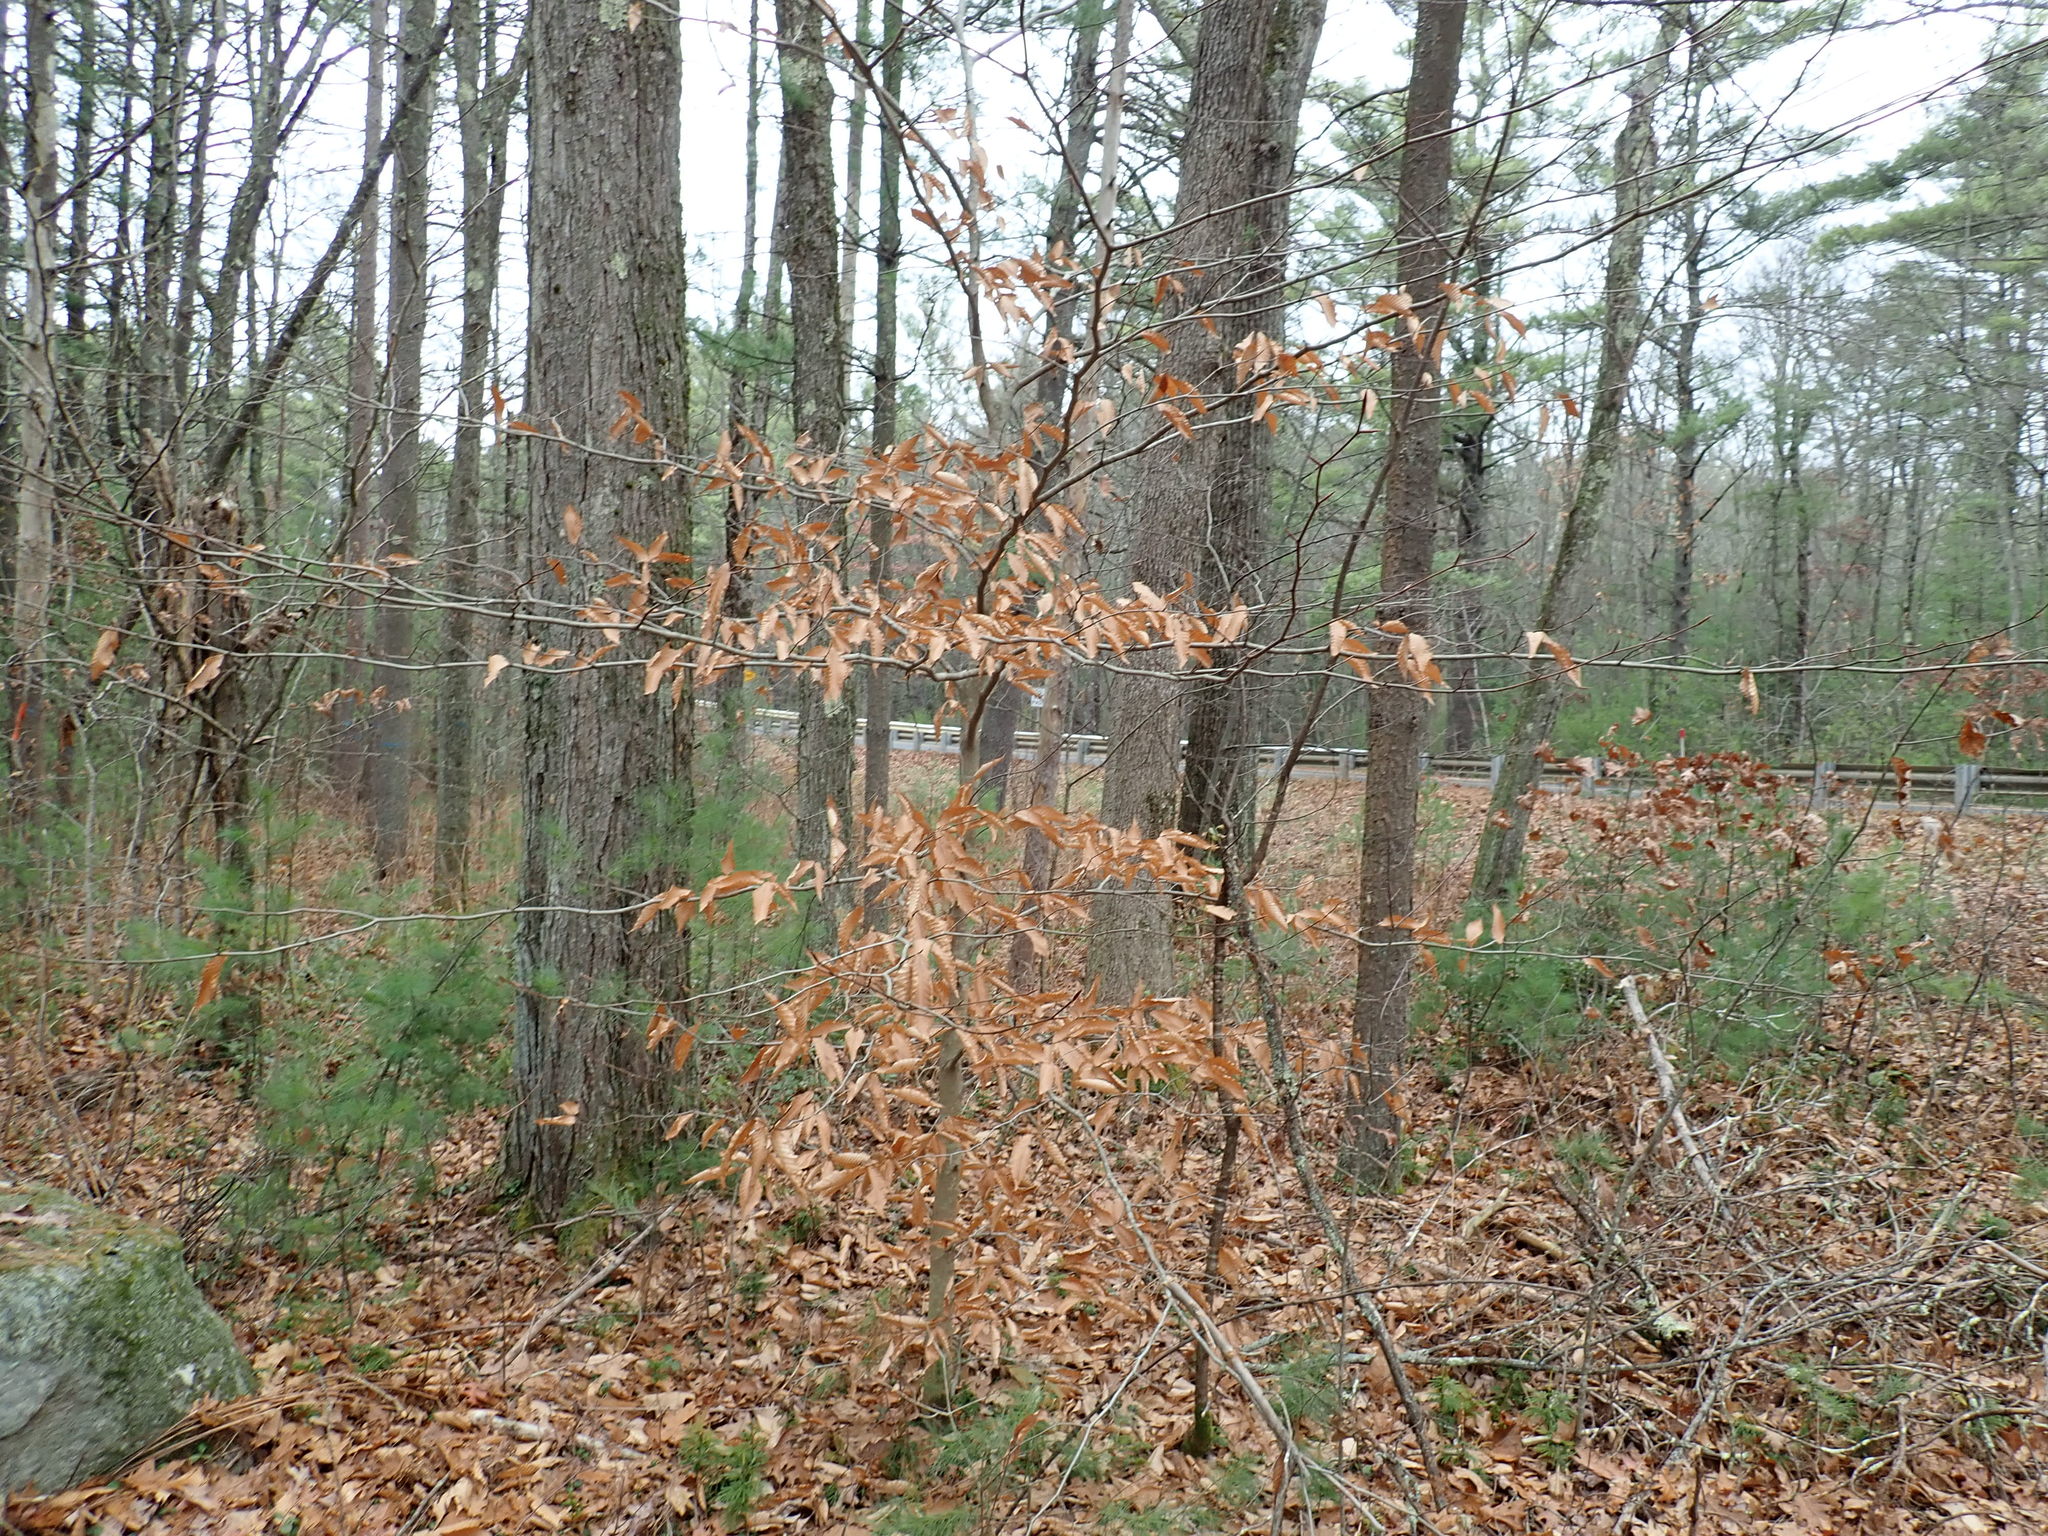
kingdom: Plantae
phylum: Tracheophyta
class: Magnoliopsida
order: Fagales
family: Fagaceae
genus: Fagus
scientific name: Fagus grandifolia
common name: American beech
